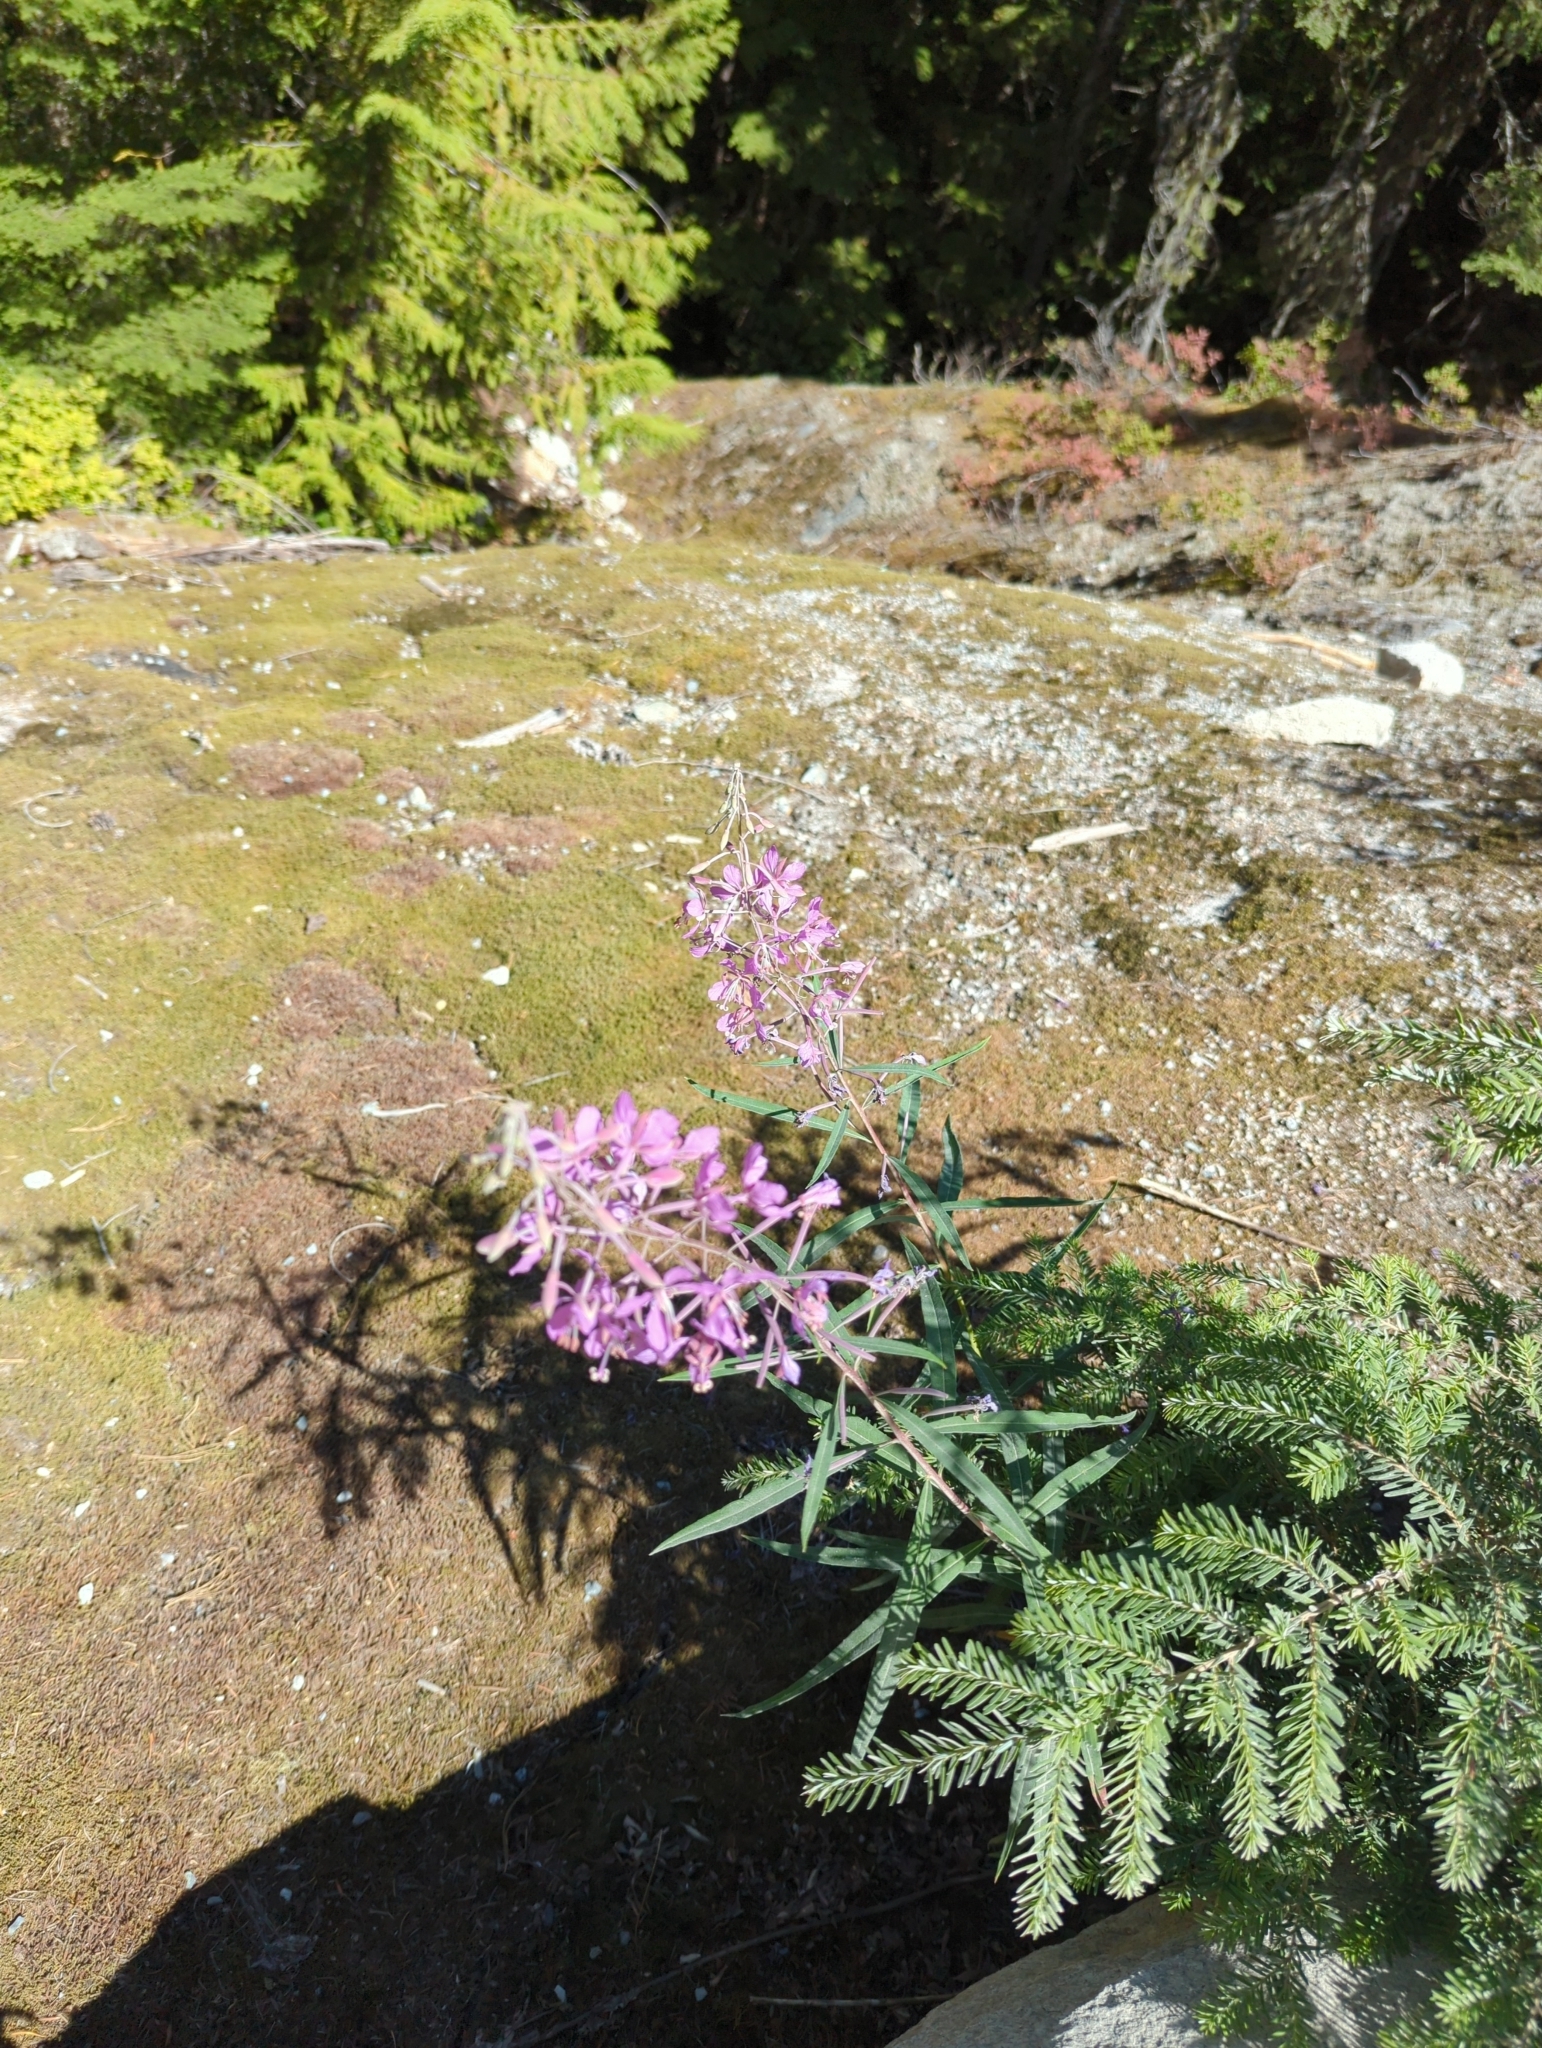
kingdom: Plantae
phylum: Tracheophyta
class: Magnoliopsida
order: Myrtales
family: Onagraceae
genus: Chamaenerion
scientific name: Chamaenerion angustifolium
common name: Fireweed
